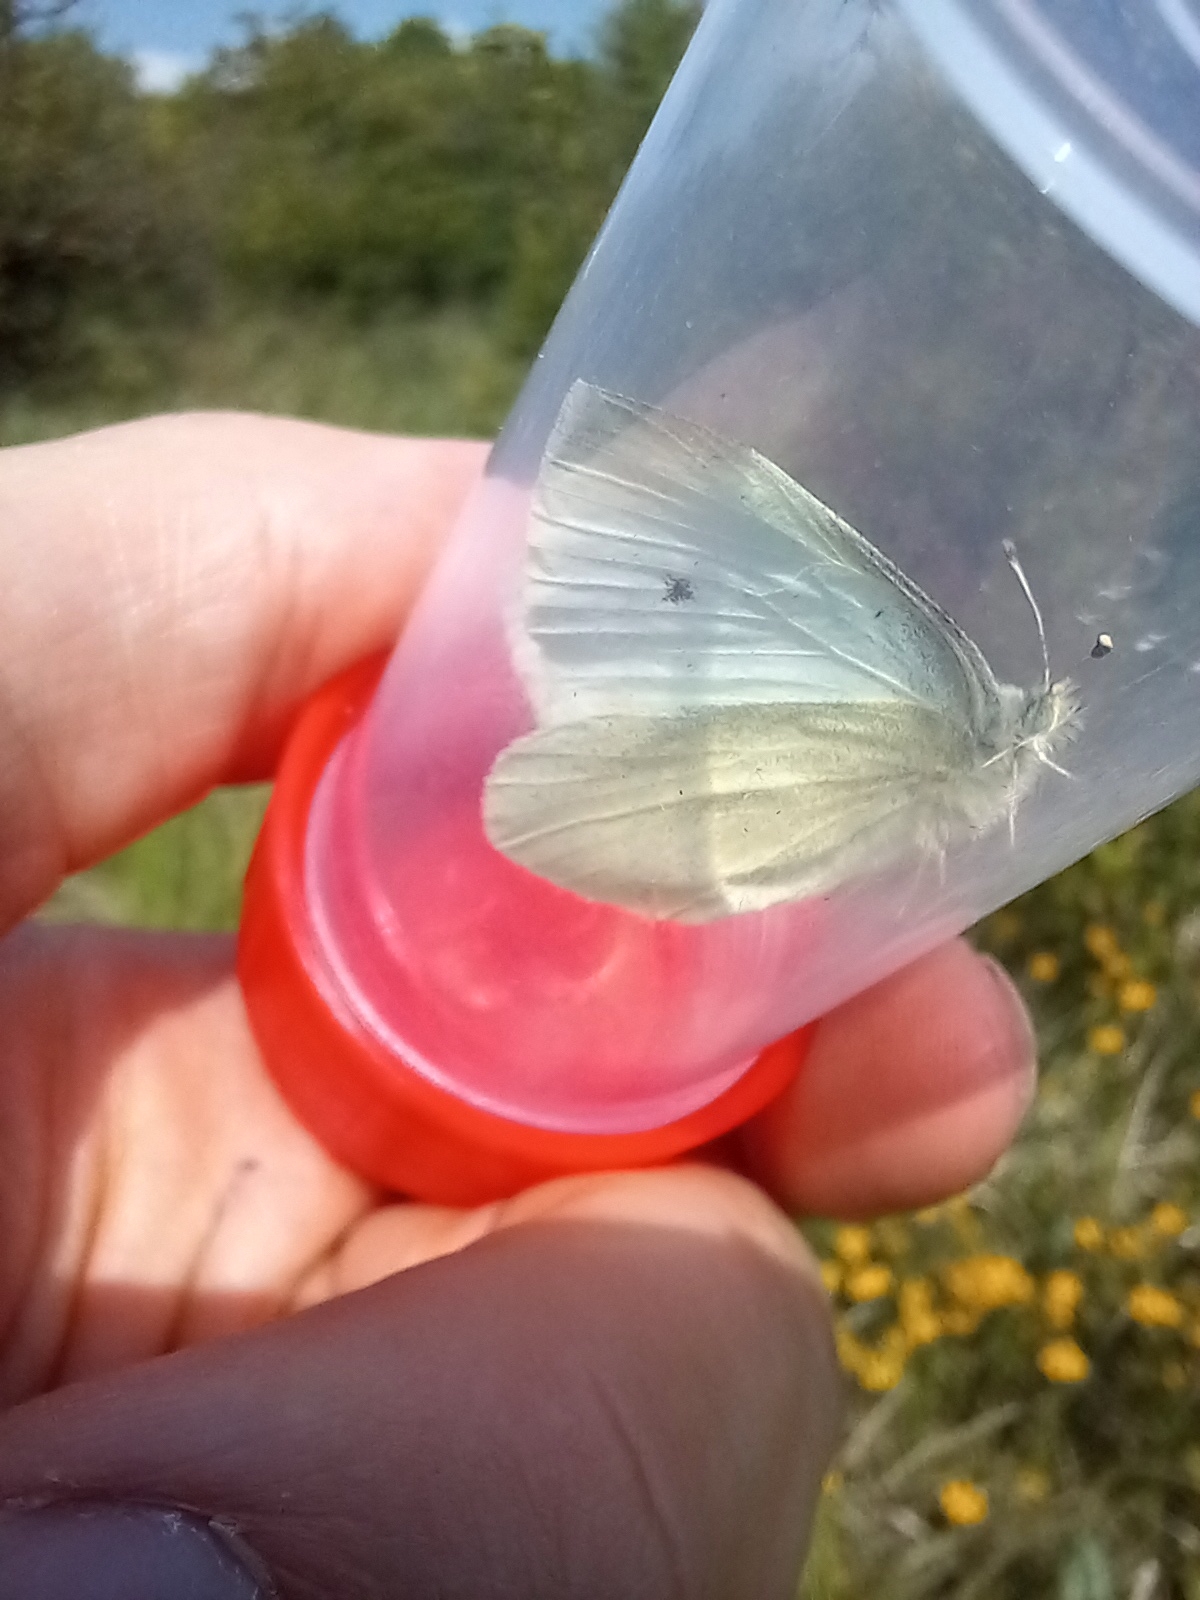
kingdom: Animalia
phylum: Arthropoda
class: Insecta
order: Lepidoptera
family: Pieridae
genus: Pieris
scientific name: Pieris rapae
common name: Small white
